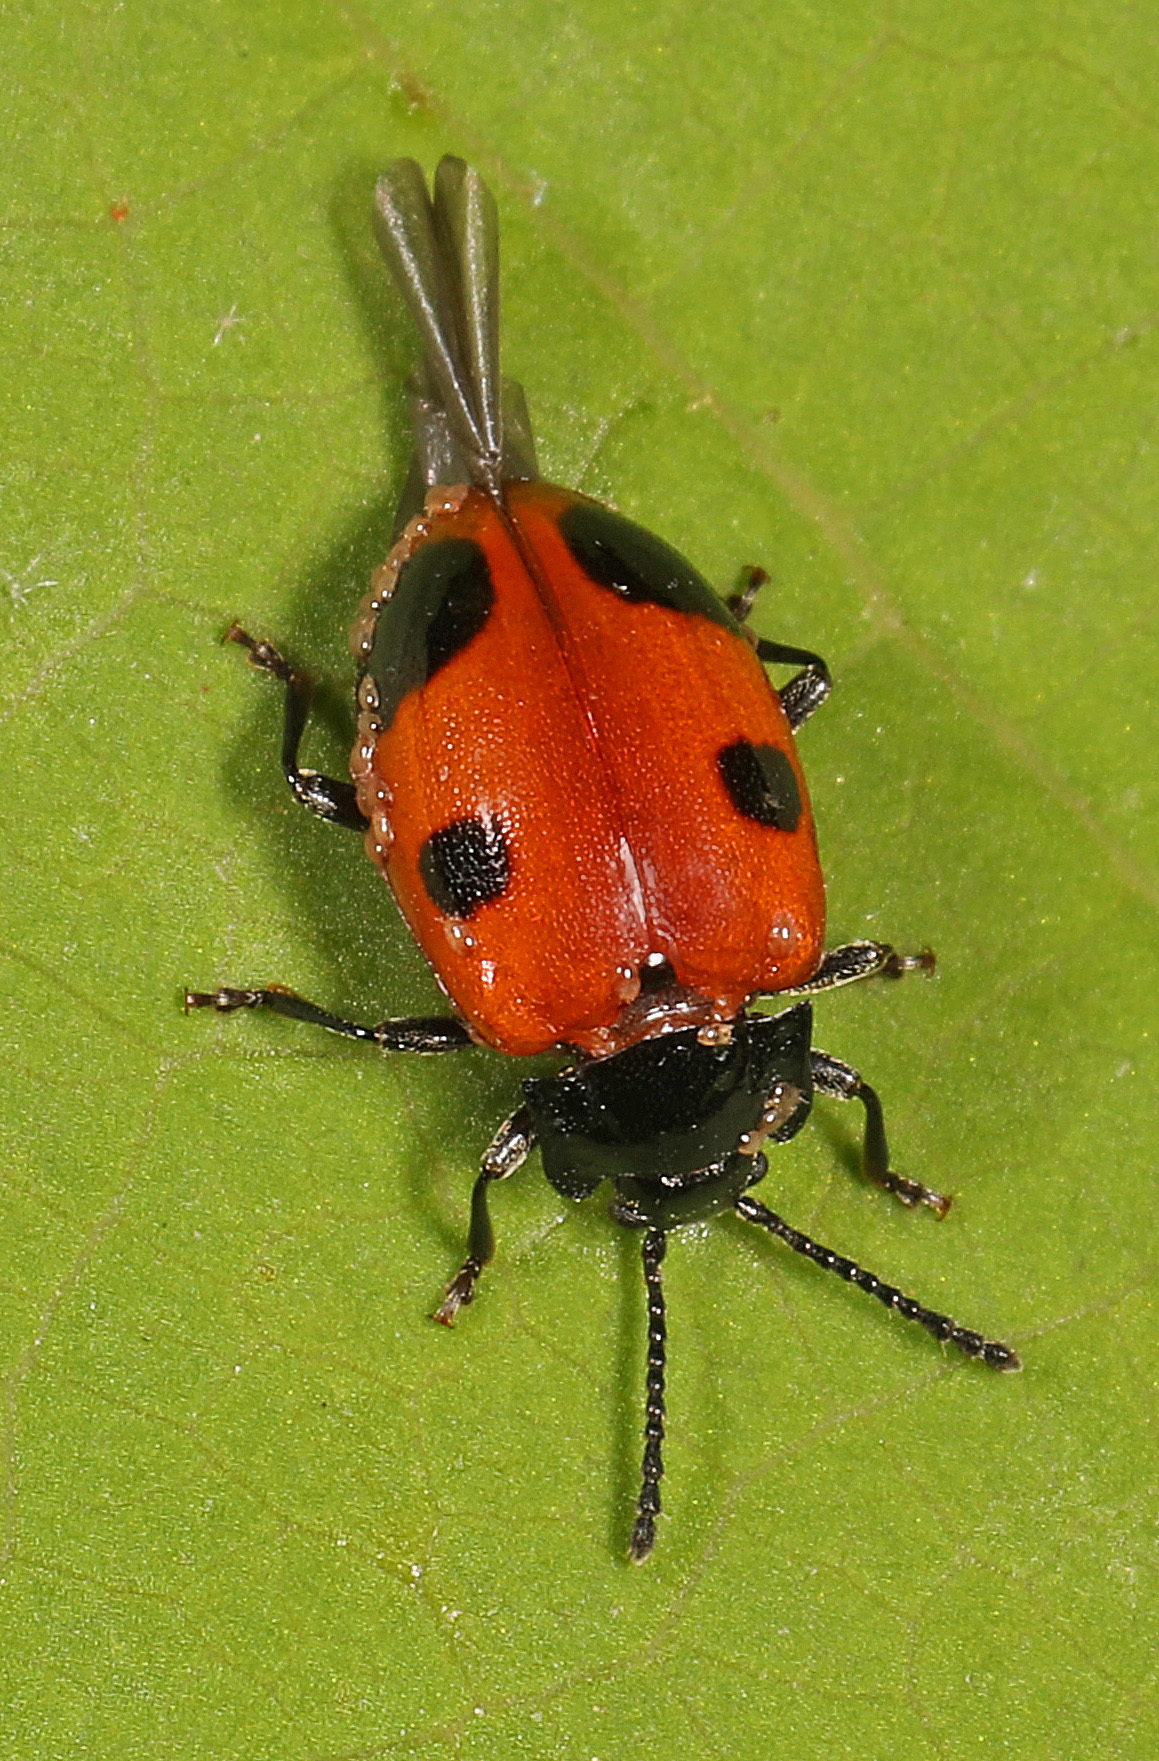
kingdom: Animalia
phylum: Arthropoda
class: Insecta
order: Coleoptera
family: Endomychidae
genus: Endomychus
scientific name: Endomychus biguttatus
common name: Handsome fungus beetle
